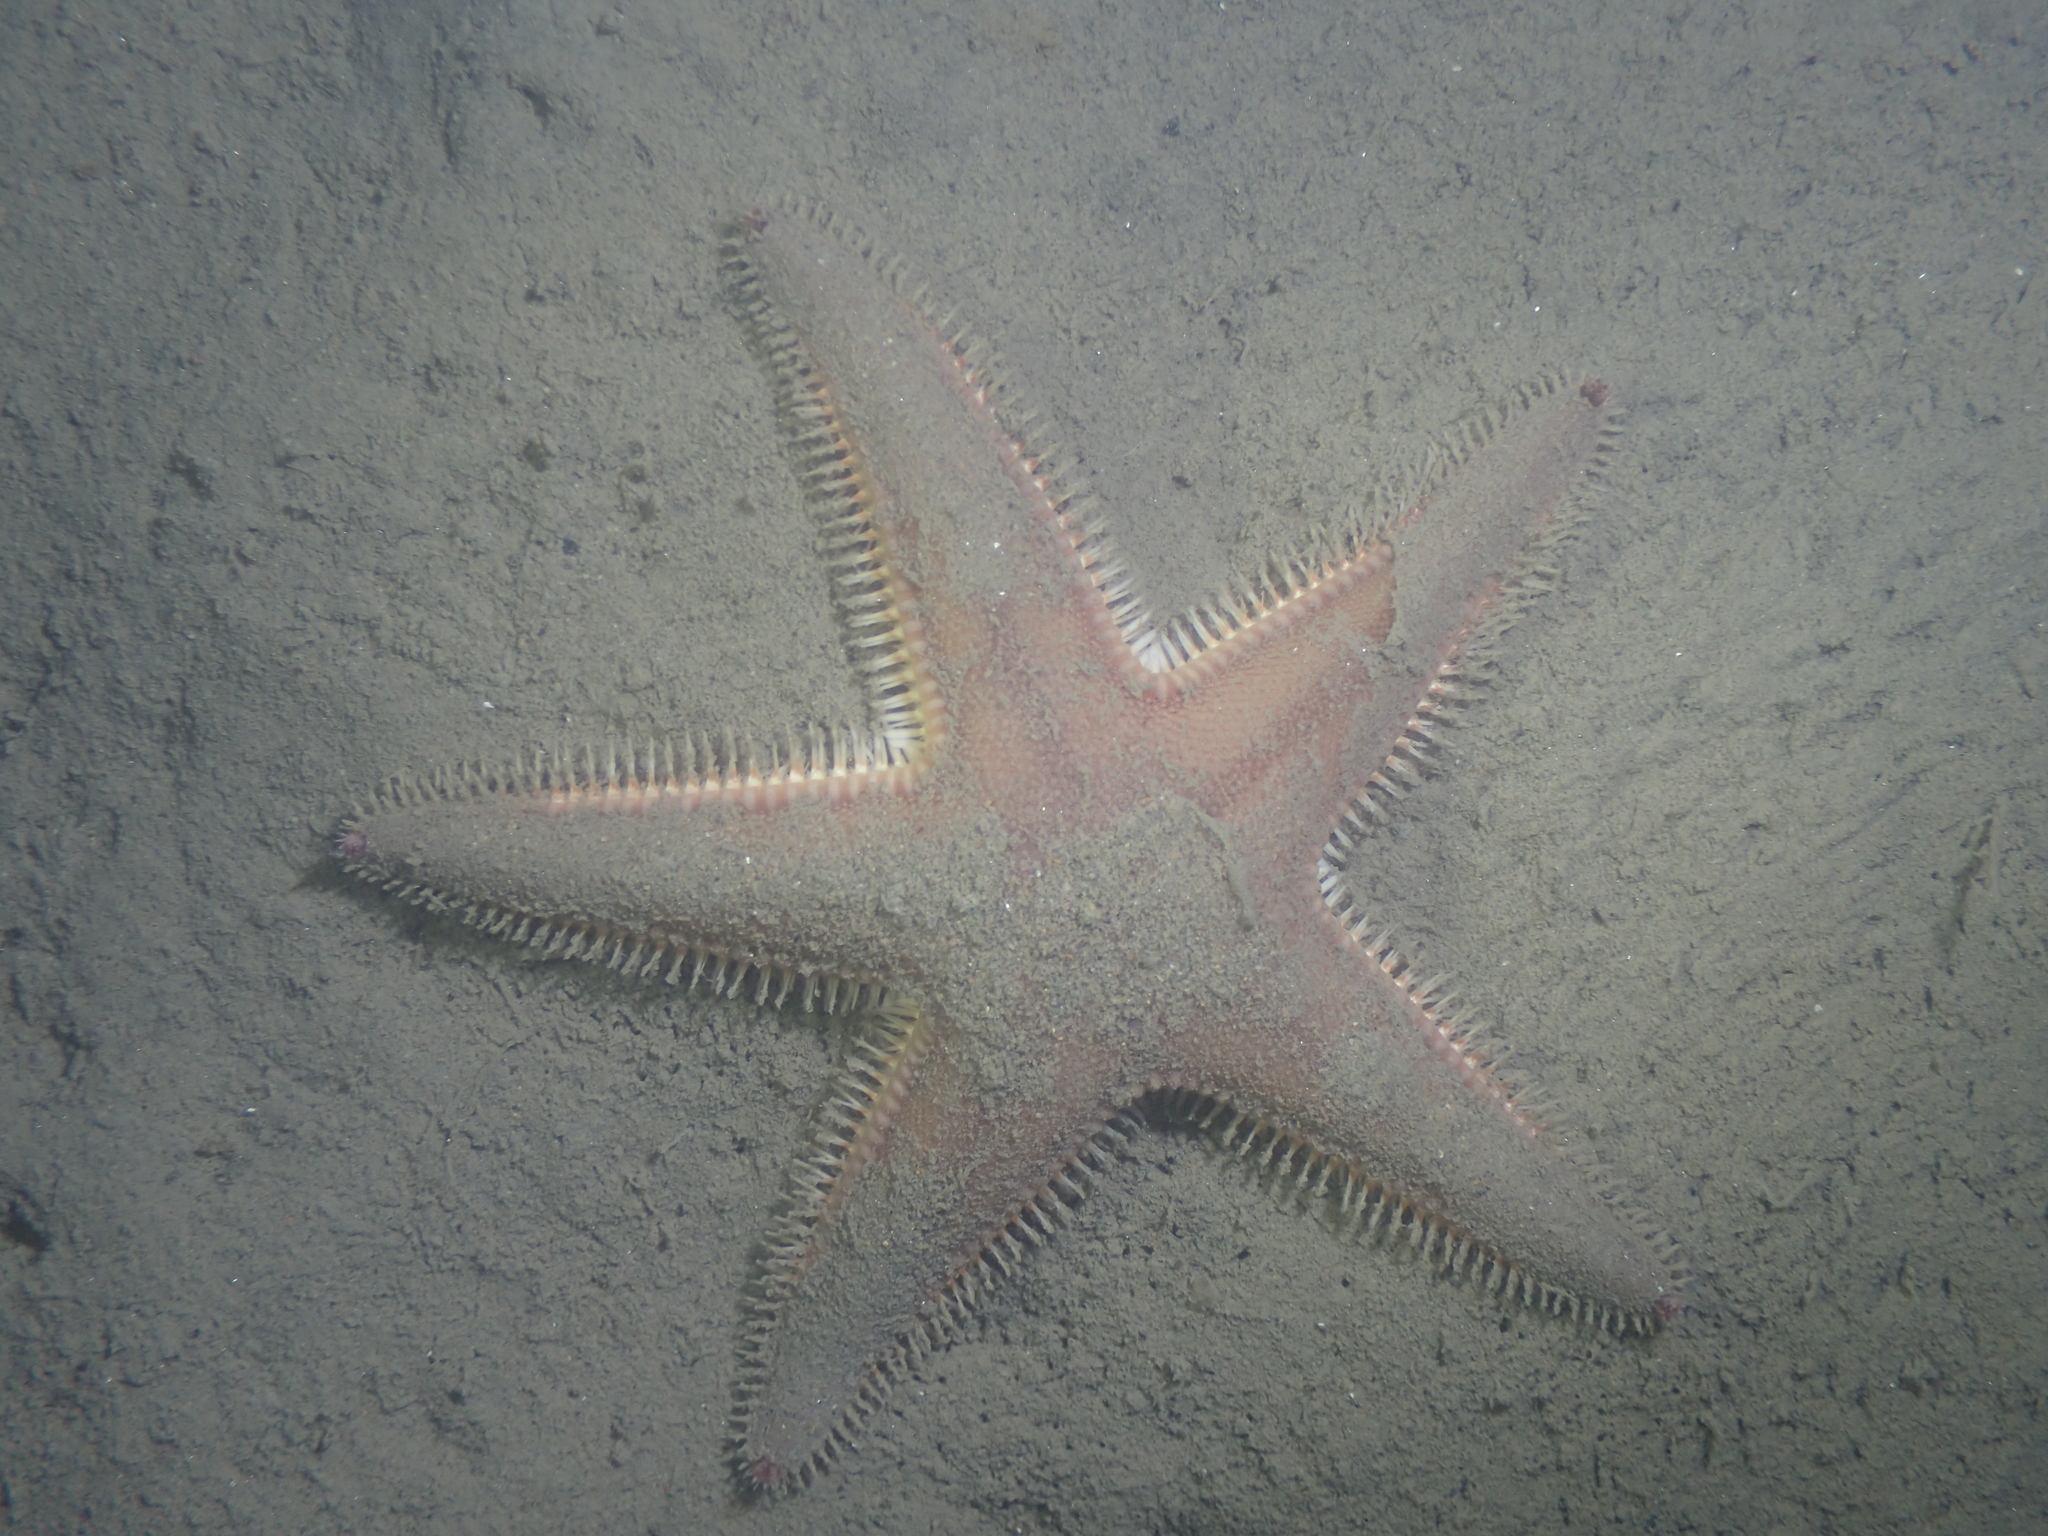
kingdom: Animalia
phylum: Echinodermata
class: Asteroidea
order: Paxillosida
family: Astropectinidae
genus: Astropecten
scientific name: Astropecten irregularis
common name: Sand star
